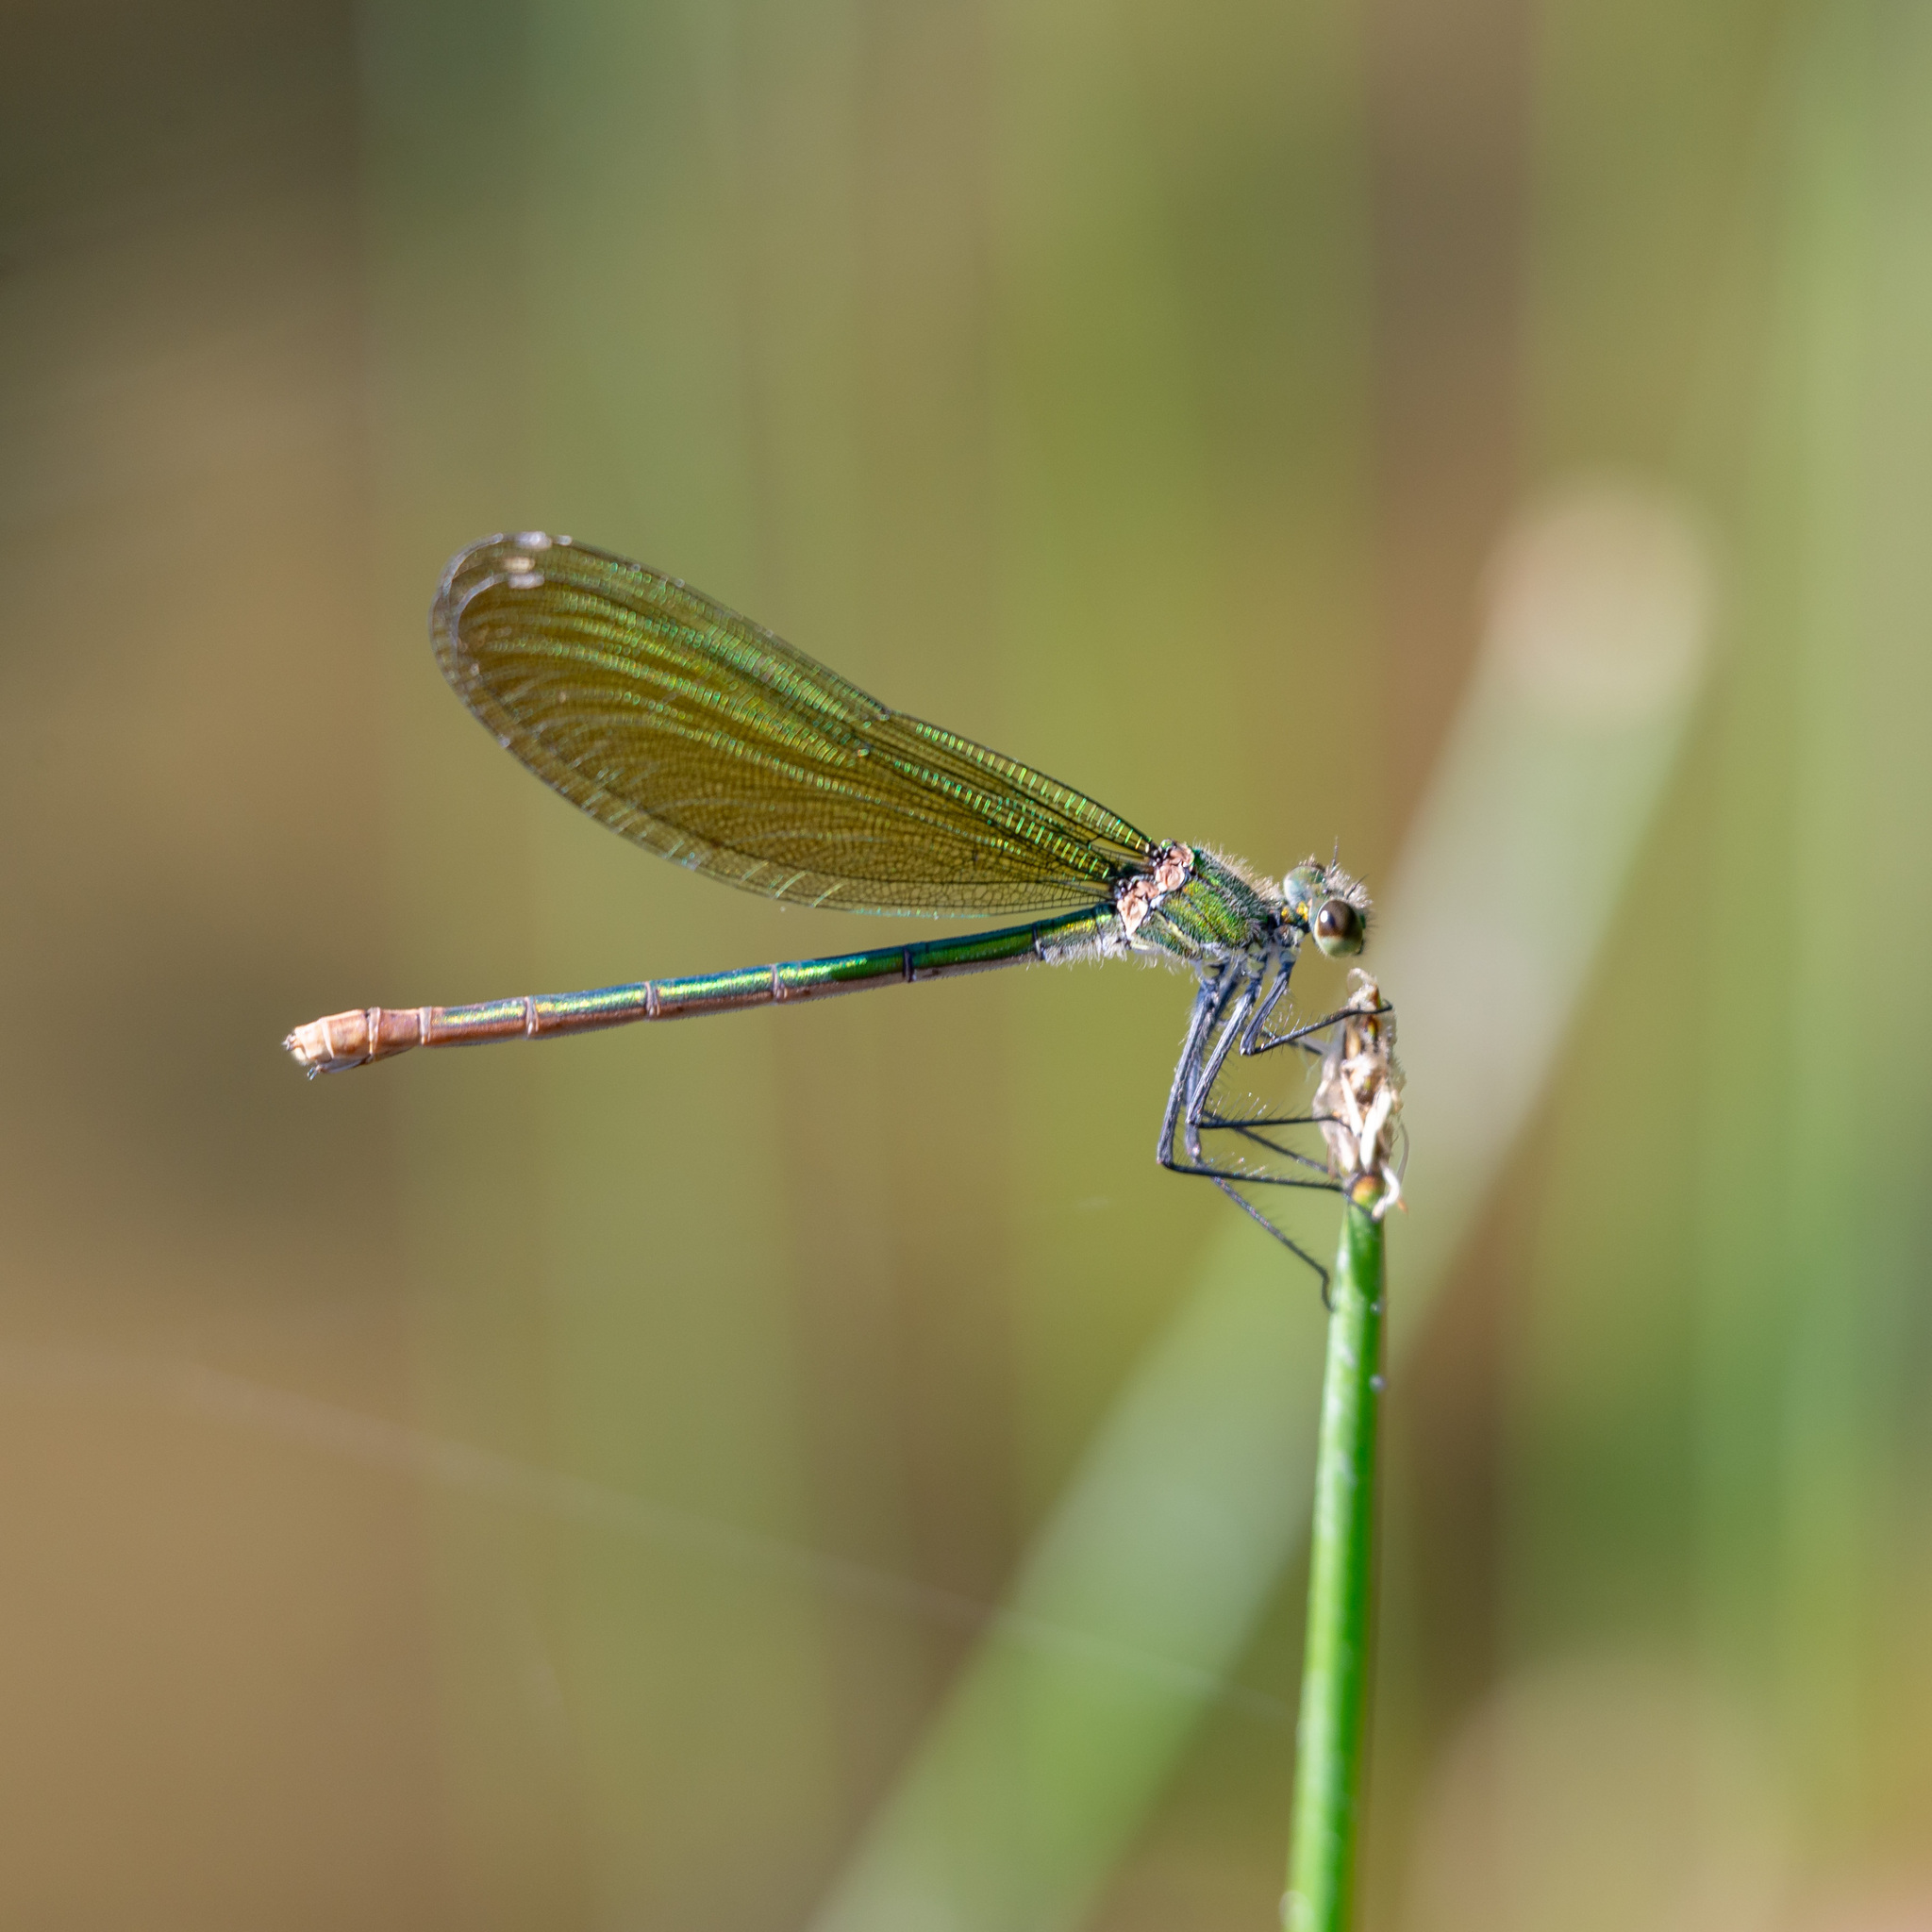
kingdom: Animalia
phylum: Arthropoda
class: Insecta
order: Odonata
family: Calopterygidae
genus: Calopteryx
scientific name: Calopteryx xanthostoma
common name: Western demoiselle
